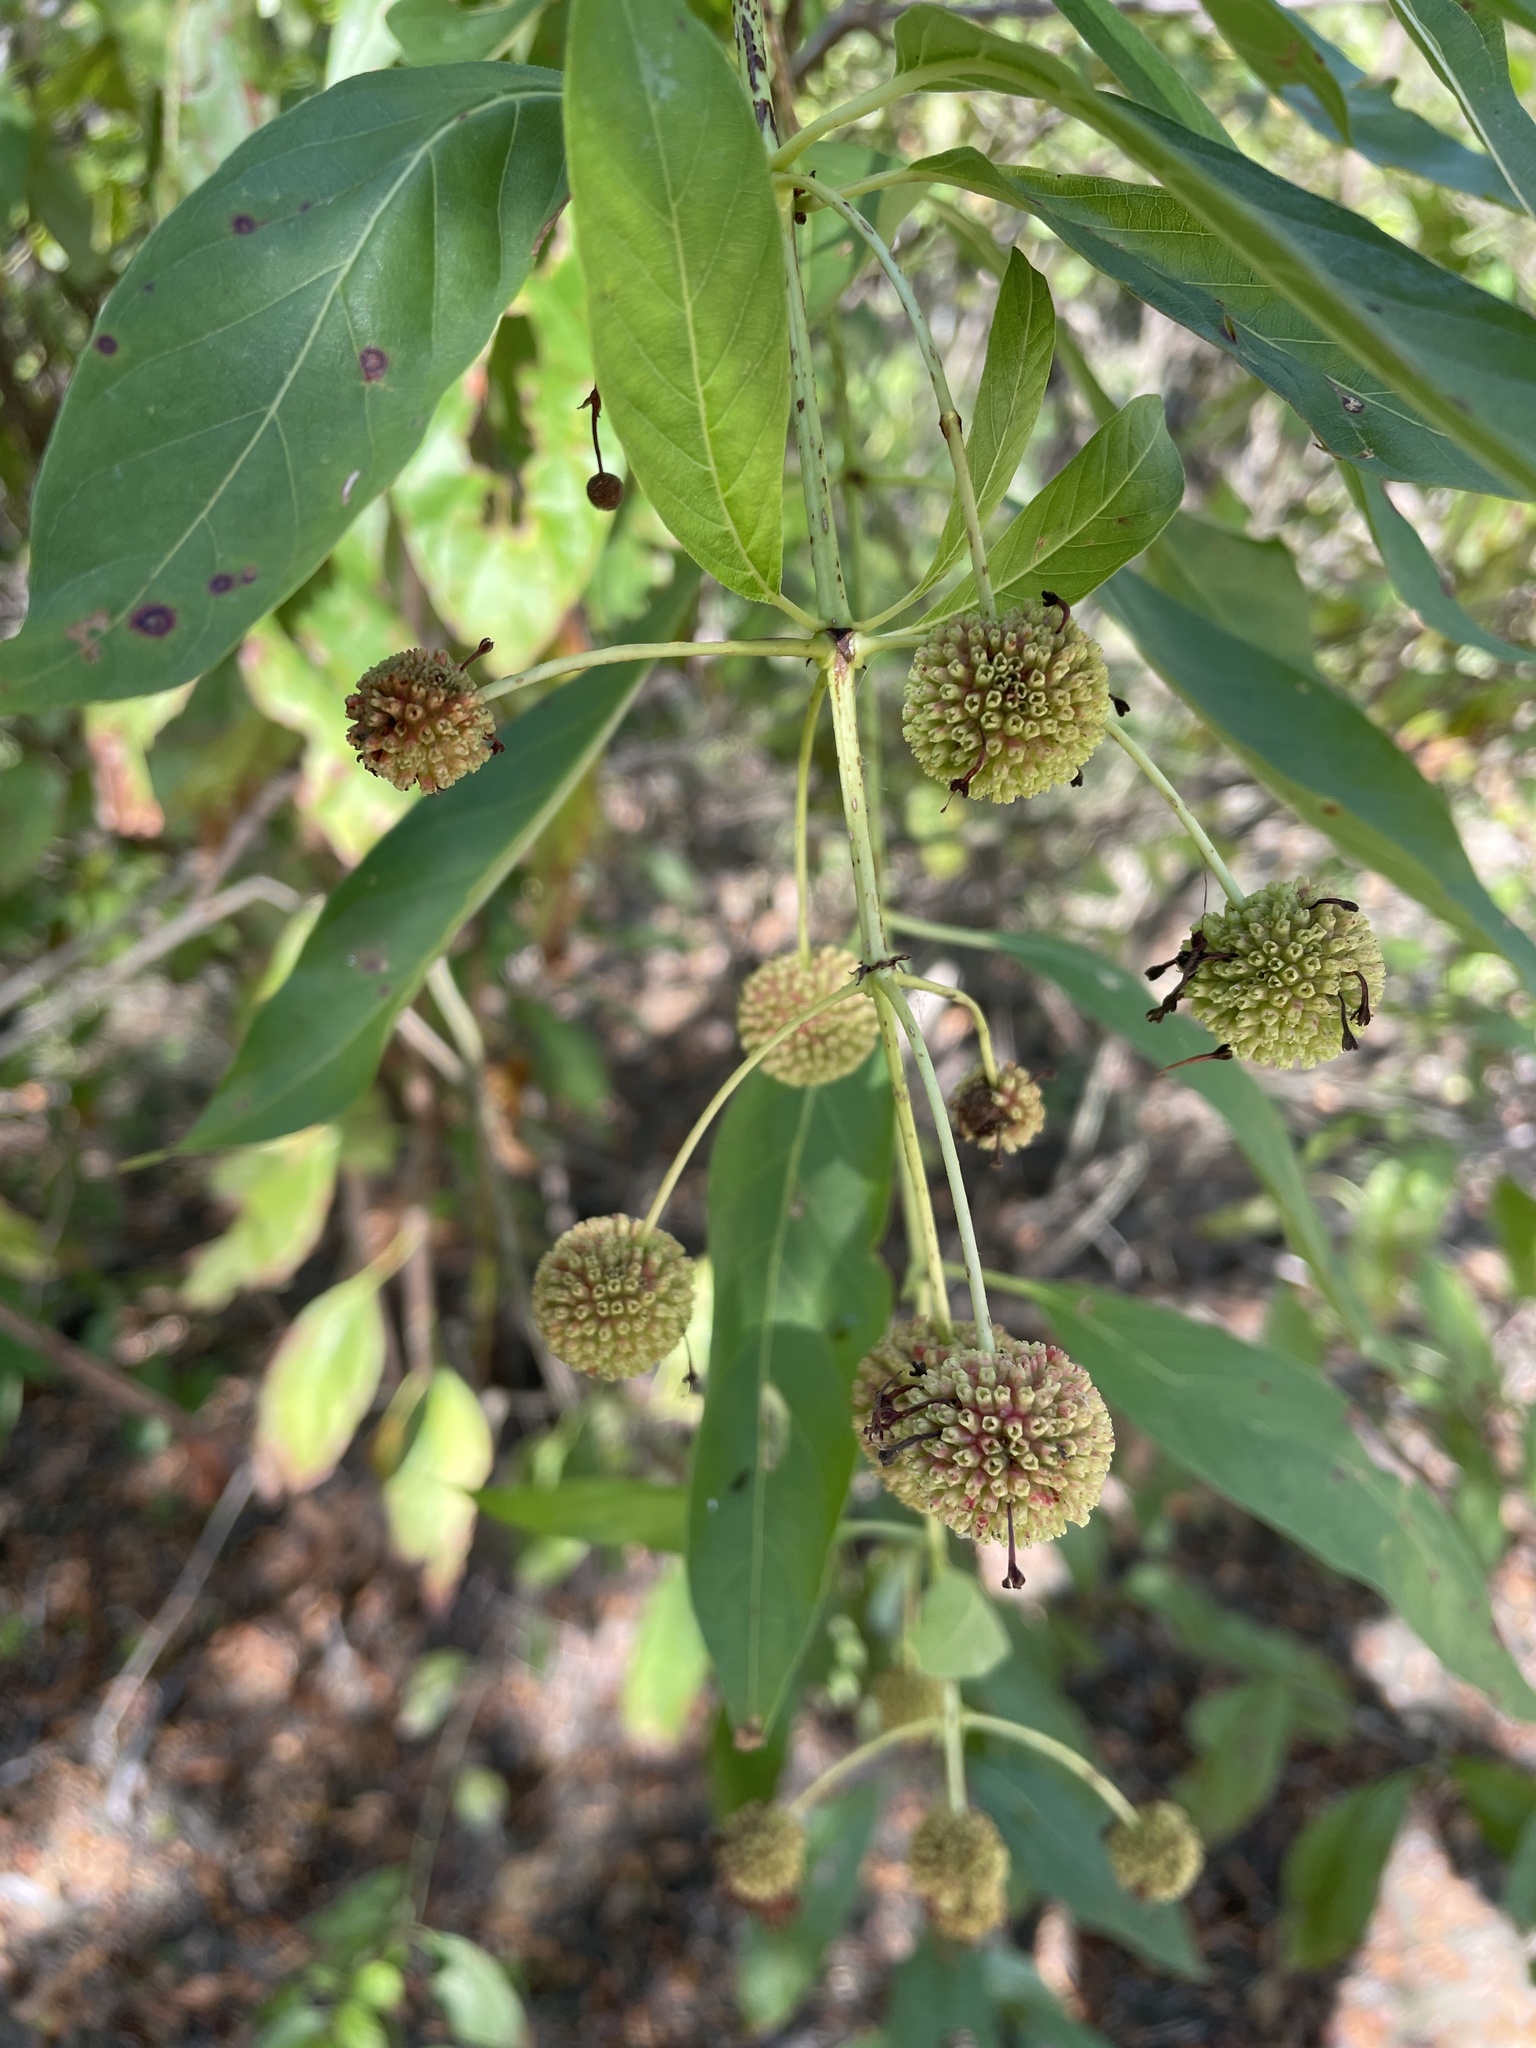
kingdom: Plantae
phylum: Tracheophyta
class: Magnoliopsida
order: Gentianales
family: Rubiaceae
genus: Cephalanthus
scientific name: Cephalanthus occidentalis
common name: Button-willow
